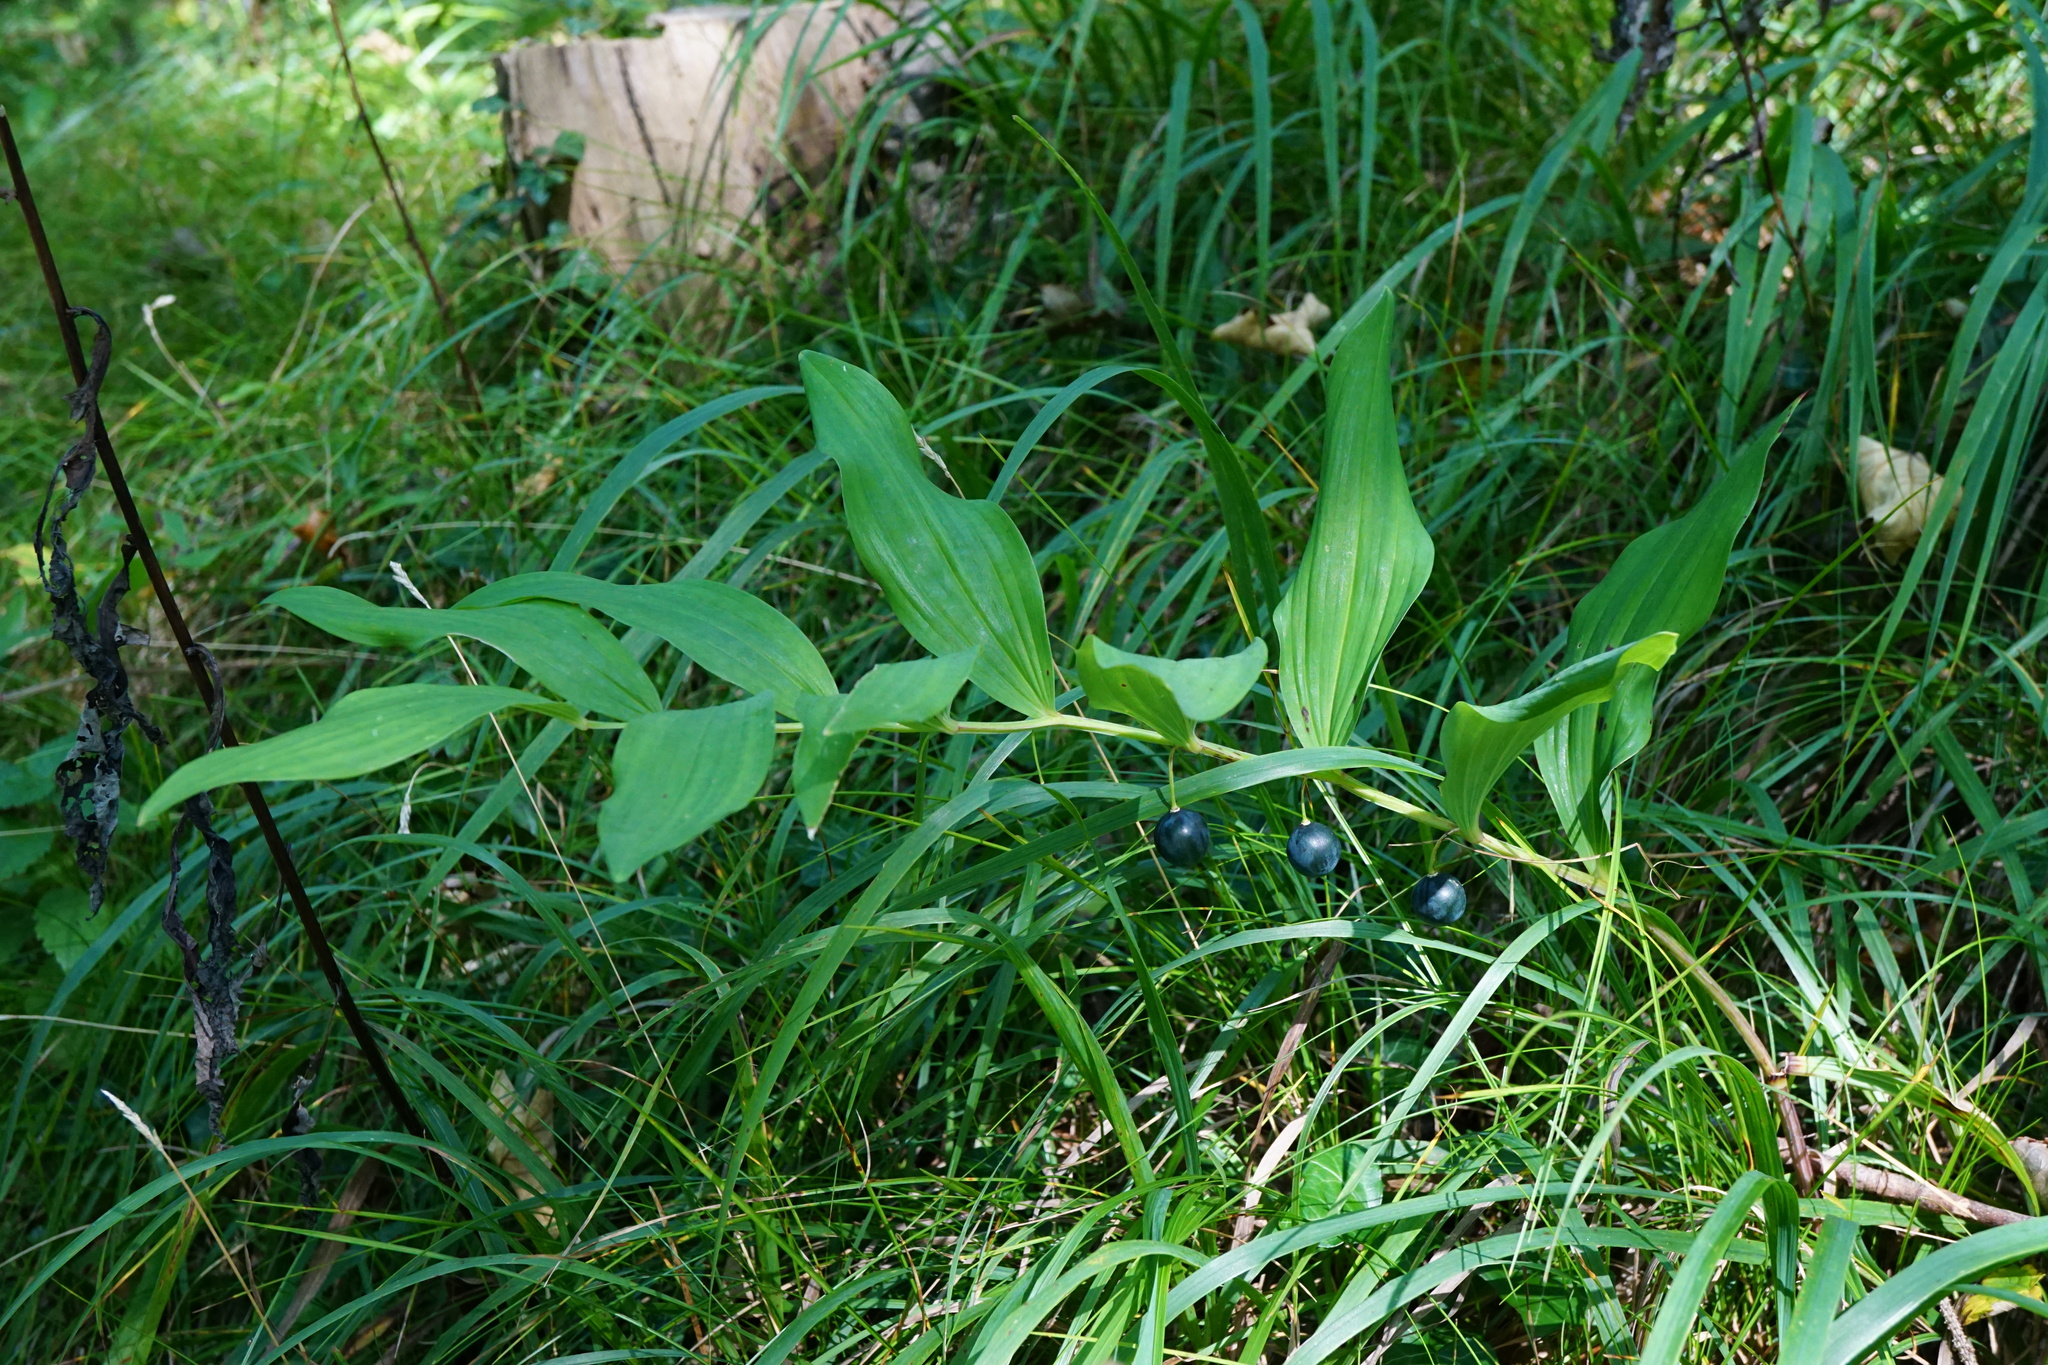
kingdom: Plantae
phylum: Tracheophyta
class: Liliopsida
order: Asparagales
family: Asparagaceae
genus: Polygonatum
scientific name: Polygonatum odoratum
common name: Angular solomon's-seal
